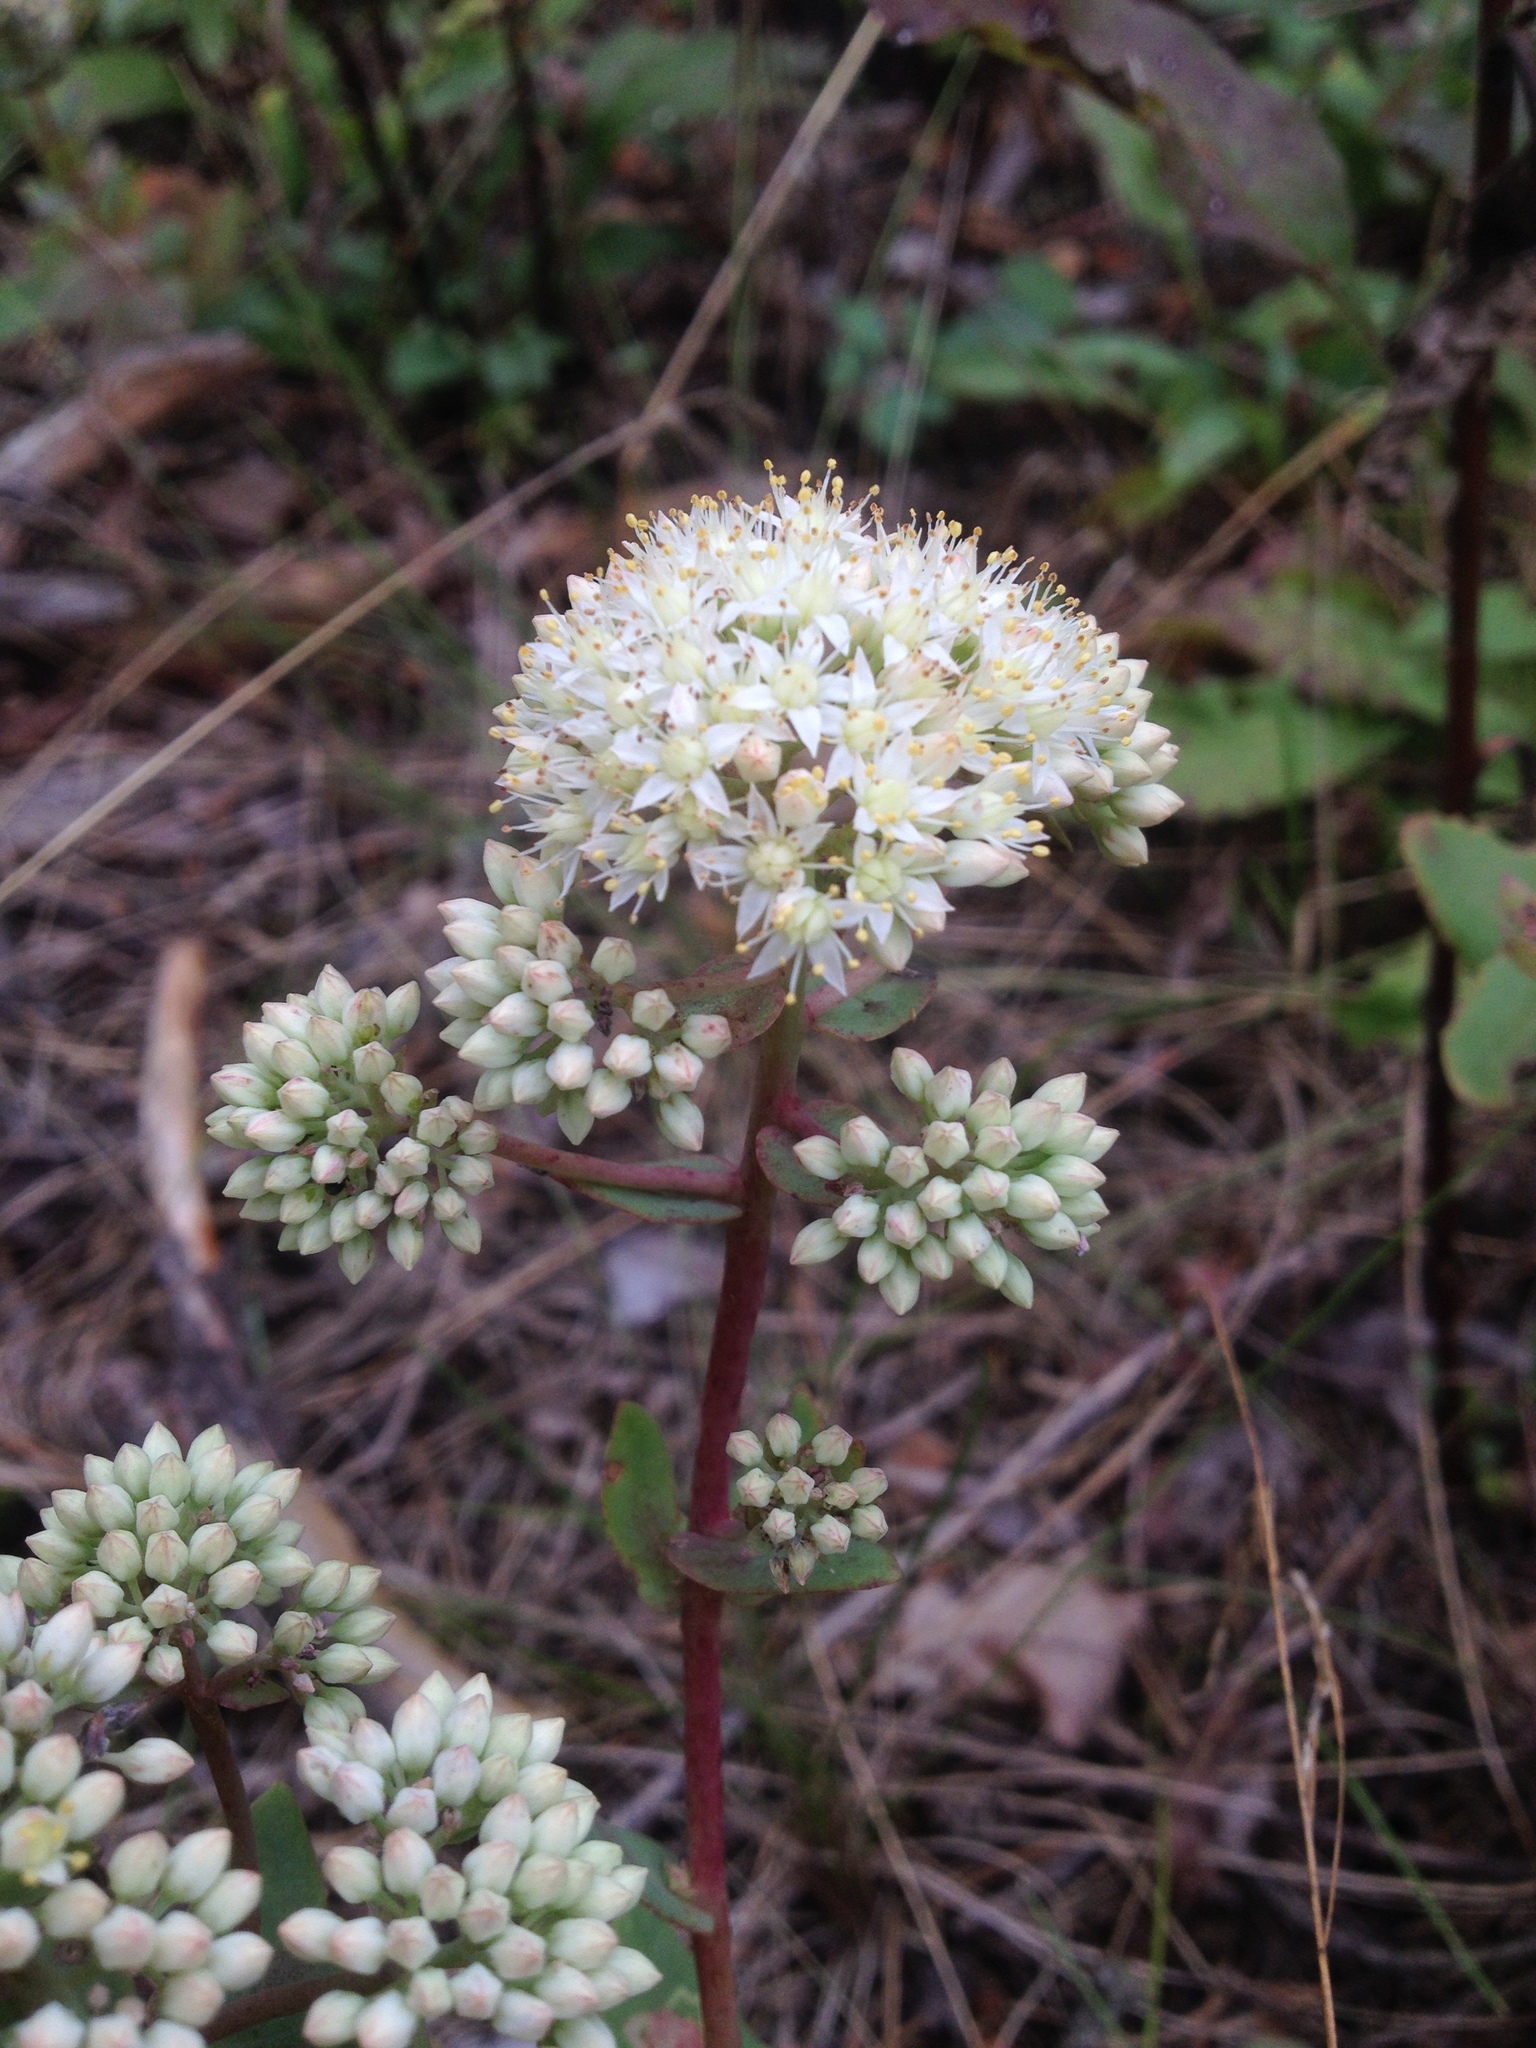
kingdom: Plantae
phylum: Tracheophyta
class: Magnoliopsida
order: Saxifragales
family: Crassulaceae
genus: Hylotelephium
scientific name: Hylotelephium maximum
